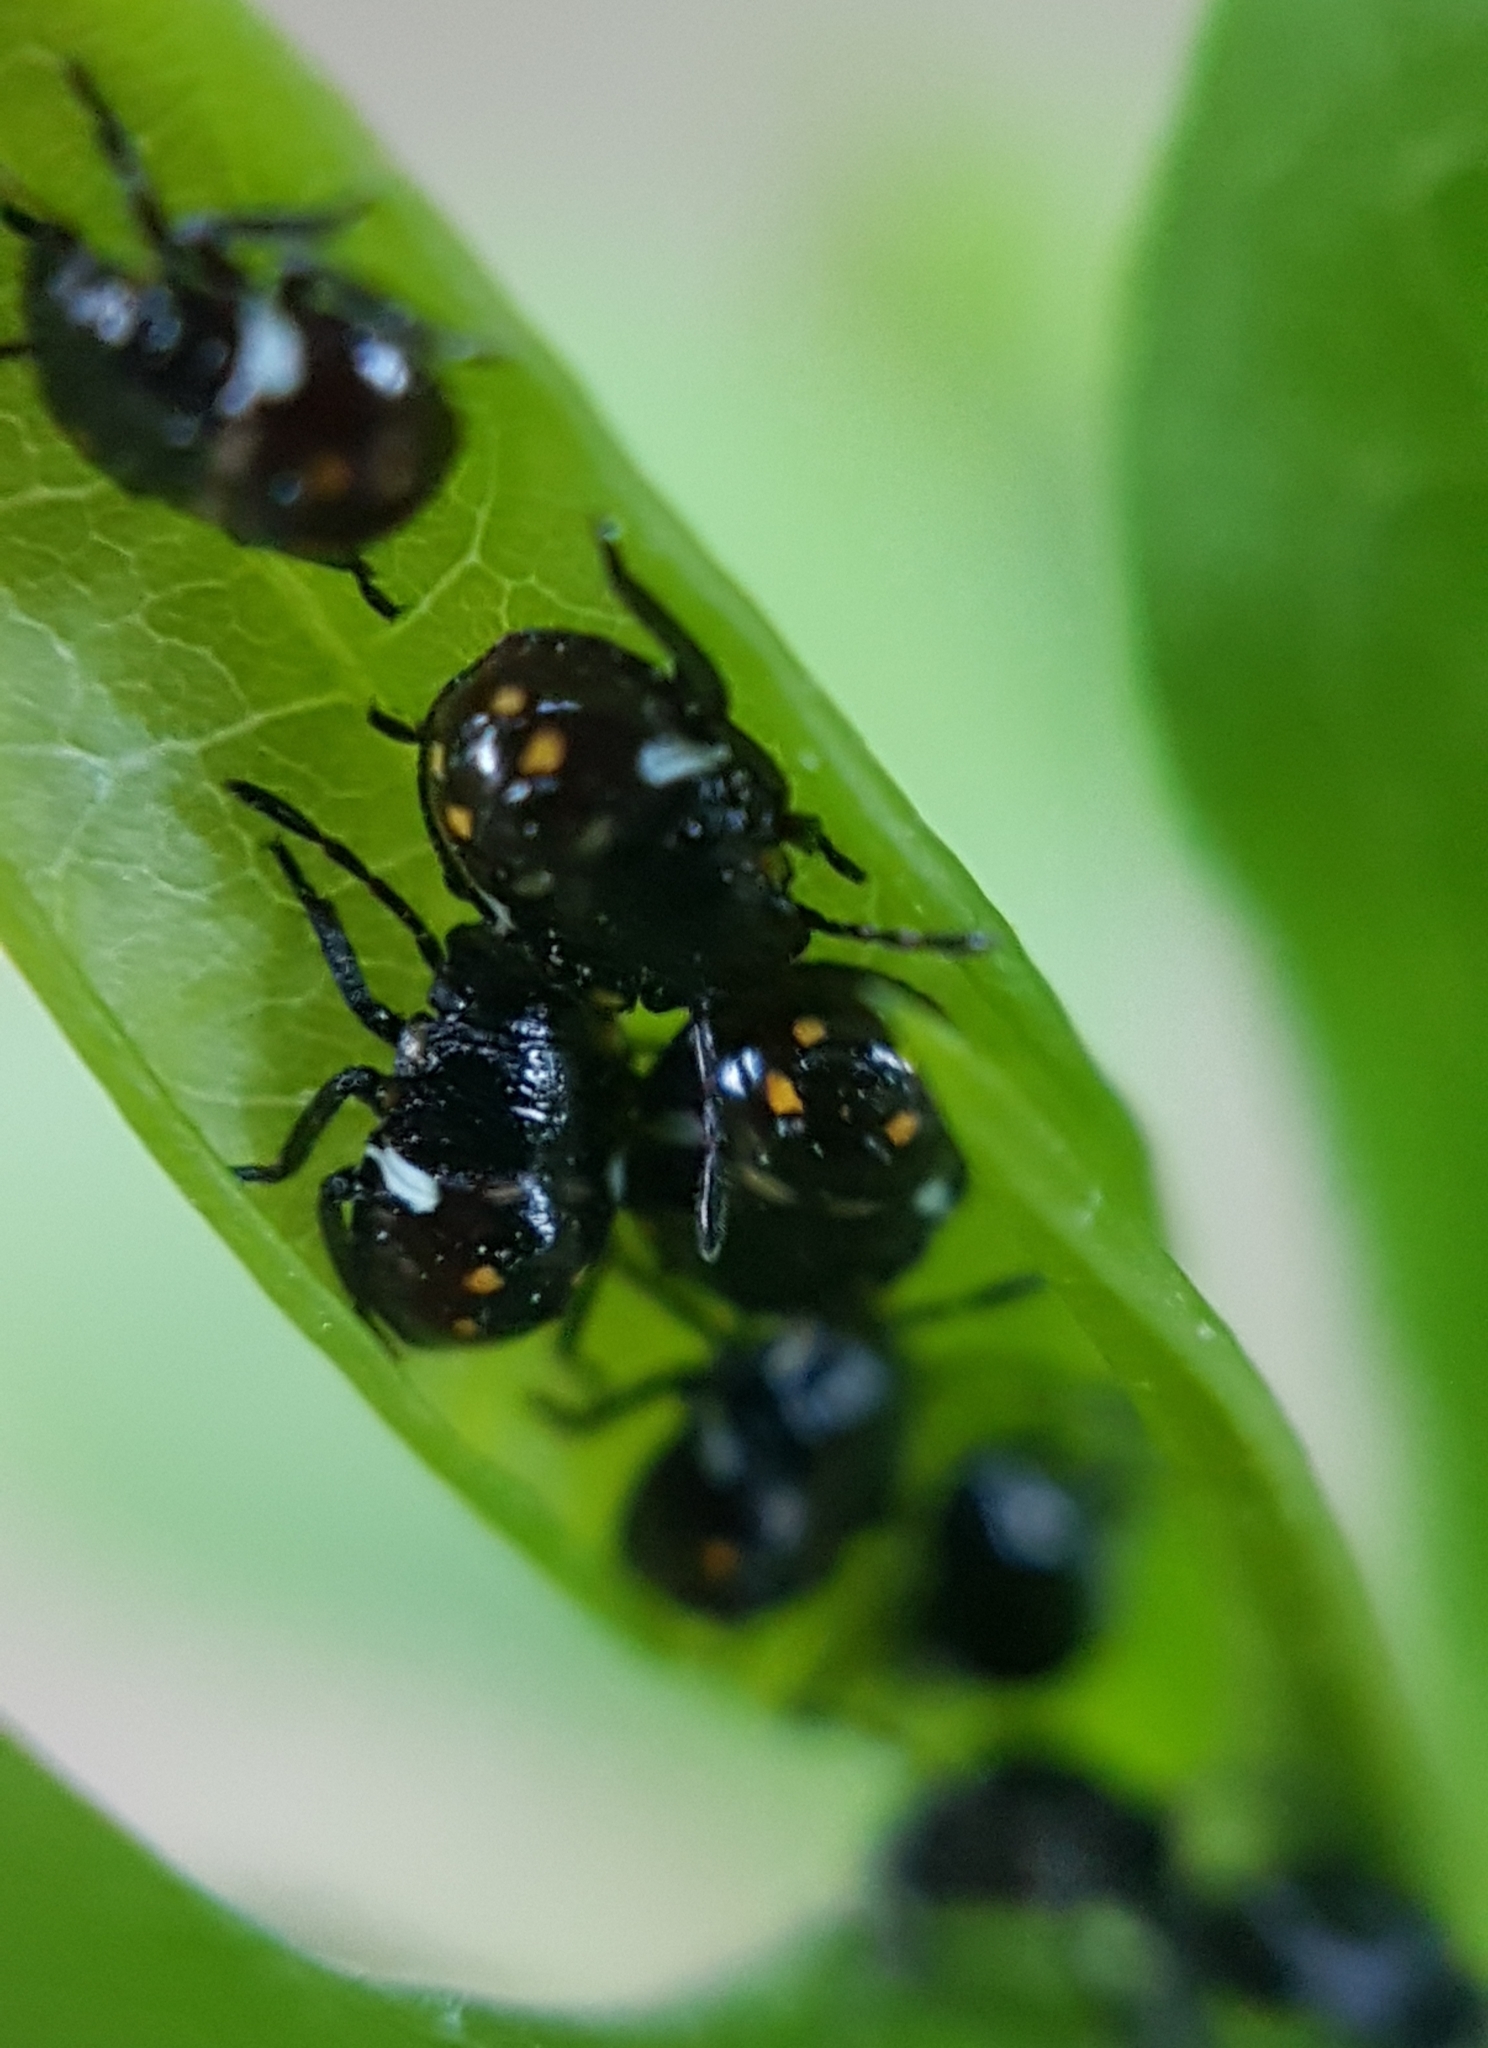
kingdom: Animalia
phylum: Arthropoda
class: Insecta
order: Hemiptera
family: Pentatomidae
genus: Nezara
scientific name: Nezara viridula
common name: Southern green stink bug
